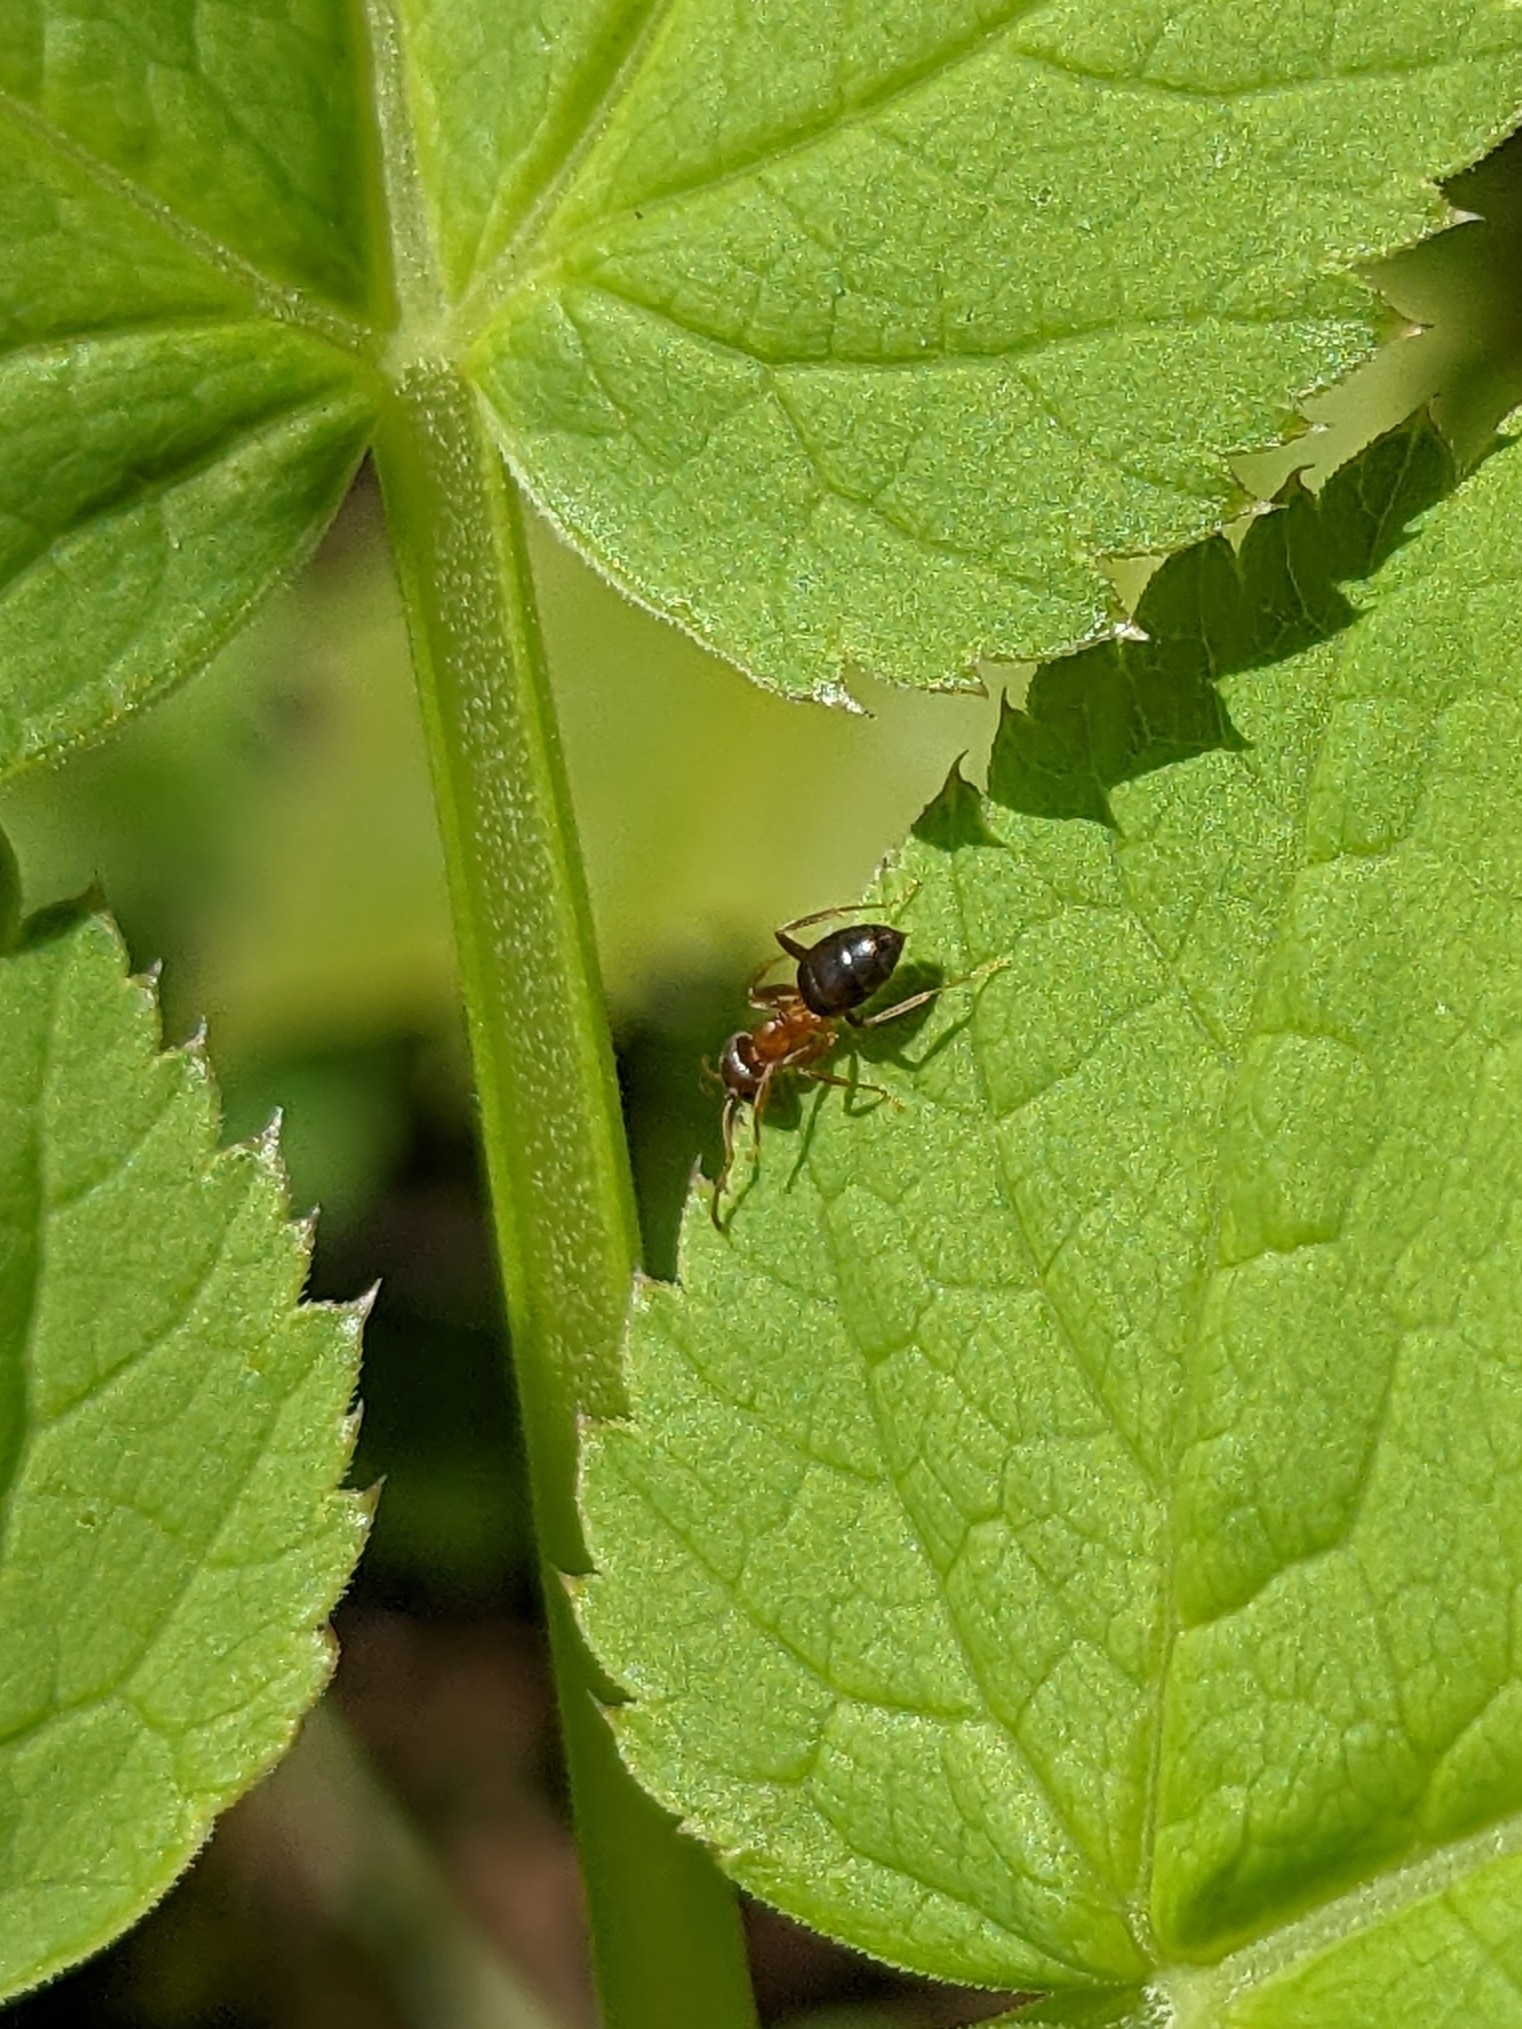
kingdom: Animalia
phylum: Arthropoda
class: Insecta
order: Hymenoptera
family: Formicidae
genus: Lasius
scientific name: Lasius brunneus
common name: Brown ant
